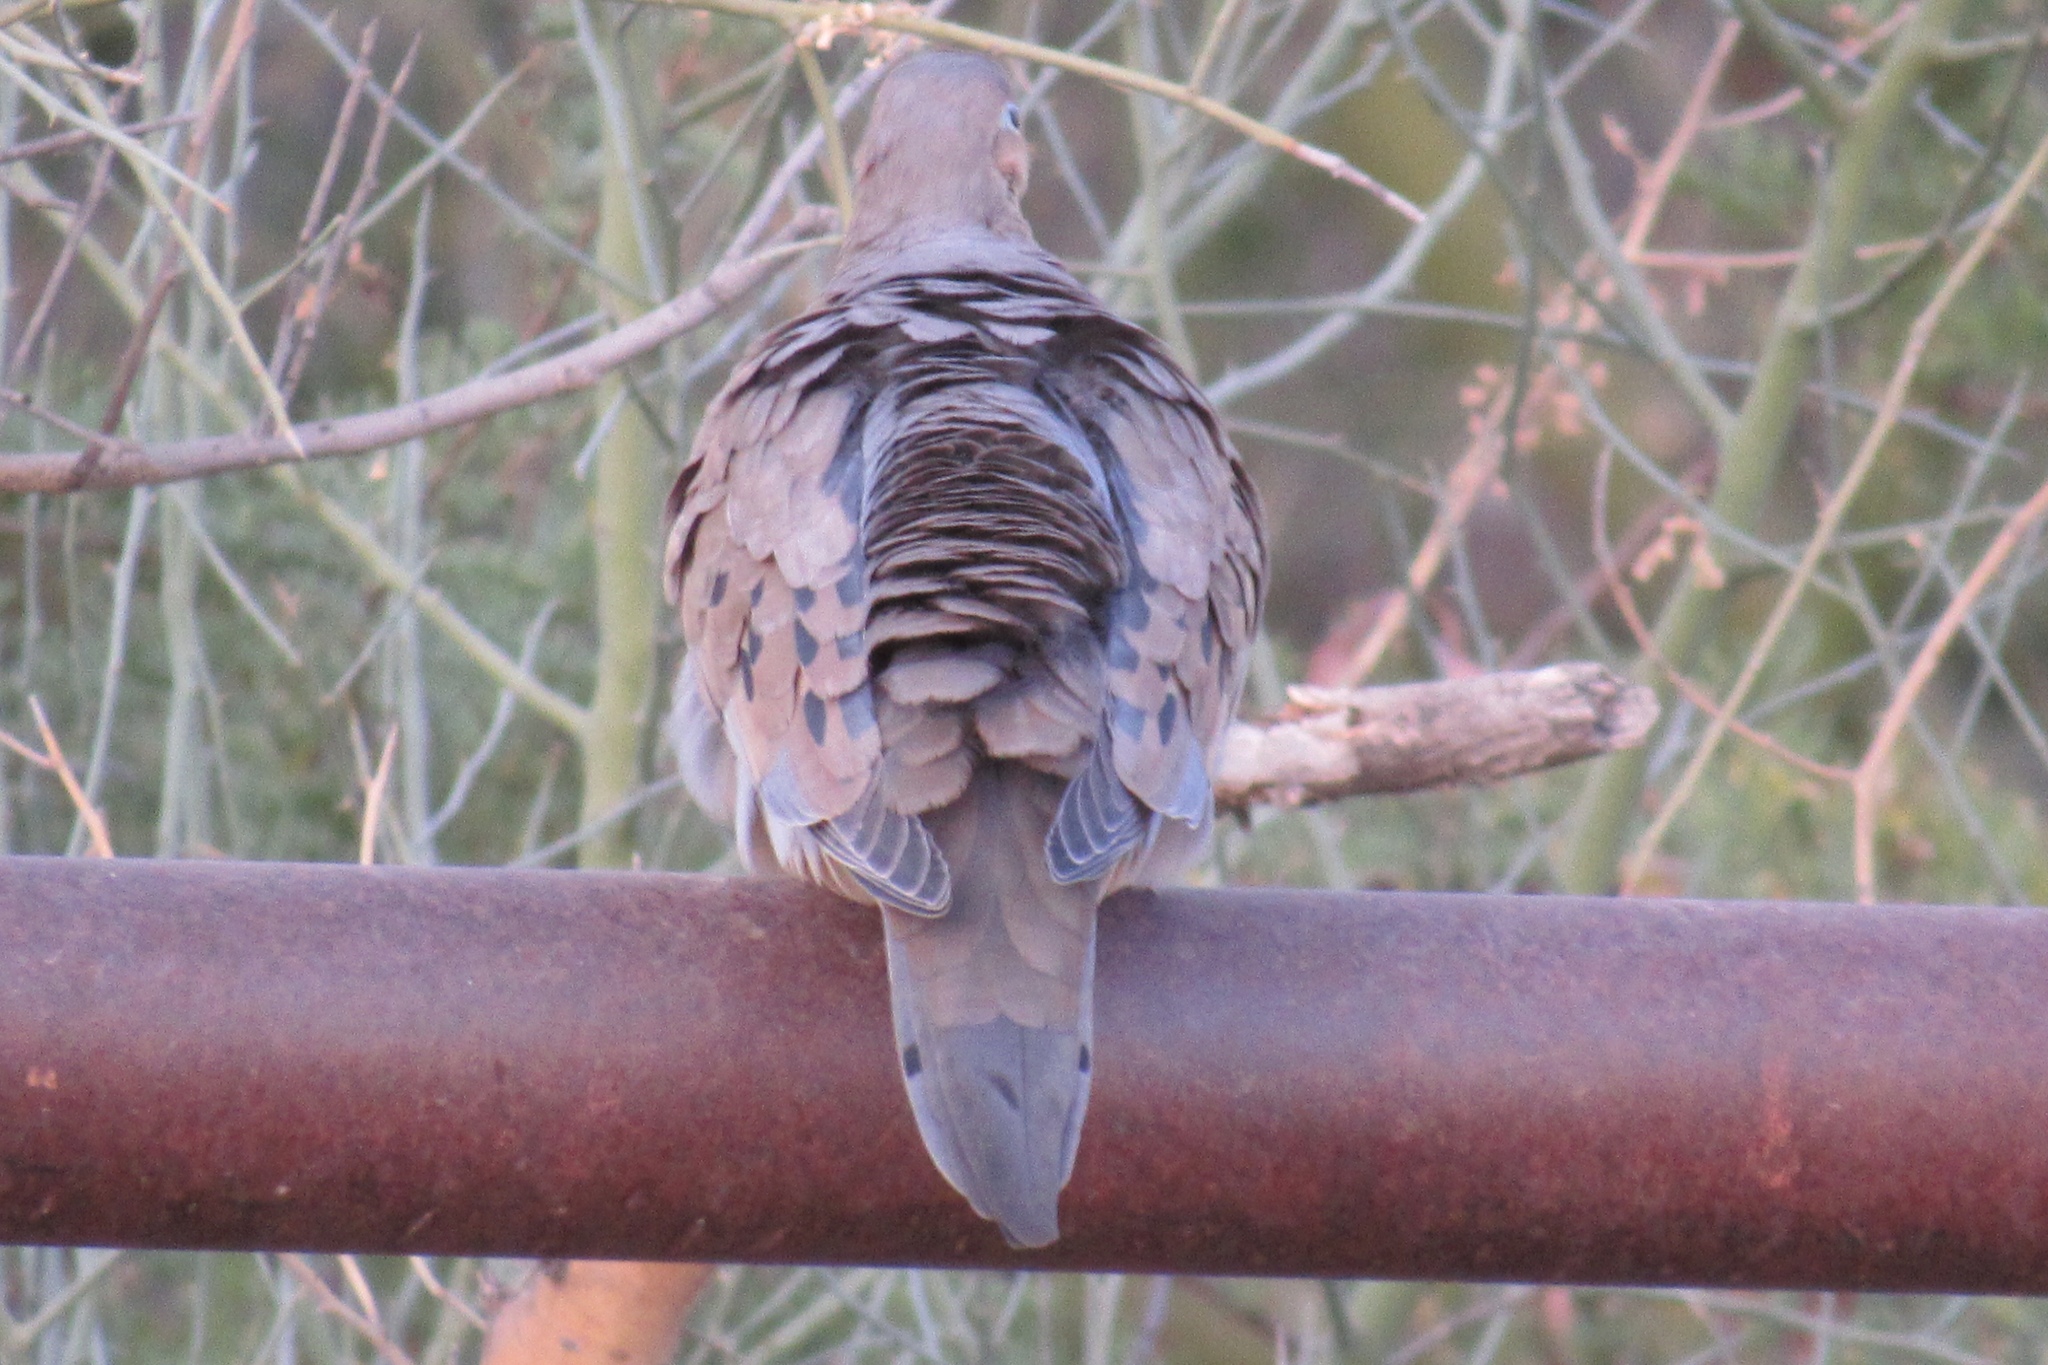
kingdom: Animalia
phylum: Chordata
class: Aves
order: Columbiformes
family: Columbidae
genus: Zenaida
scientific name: Zenaida macroura
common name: Mourning dove
